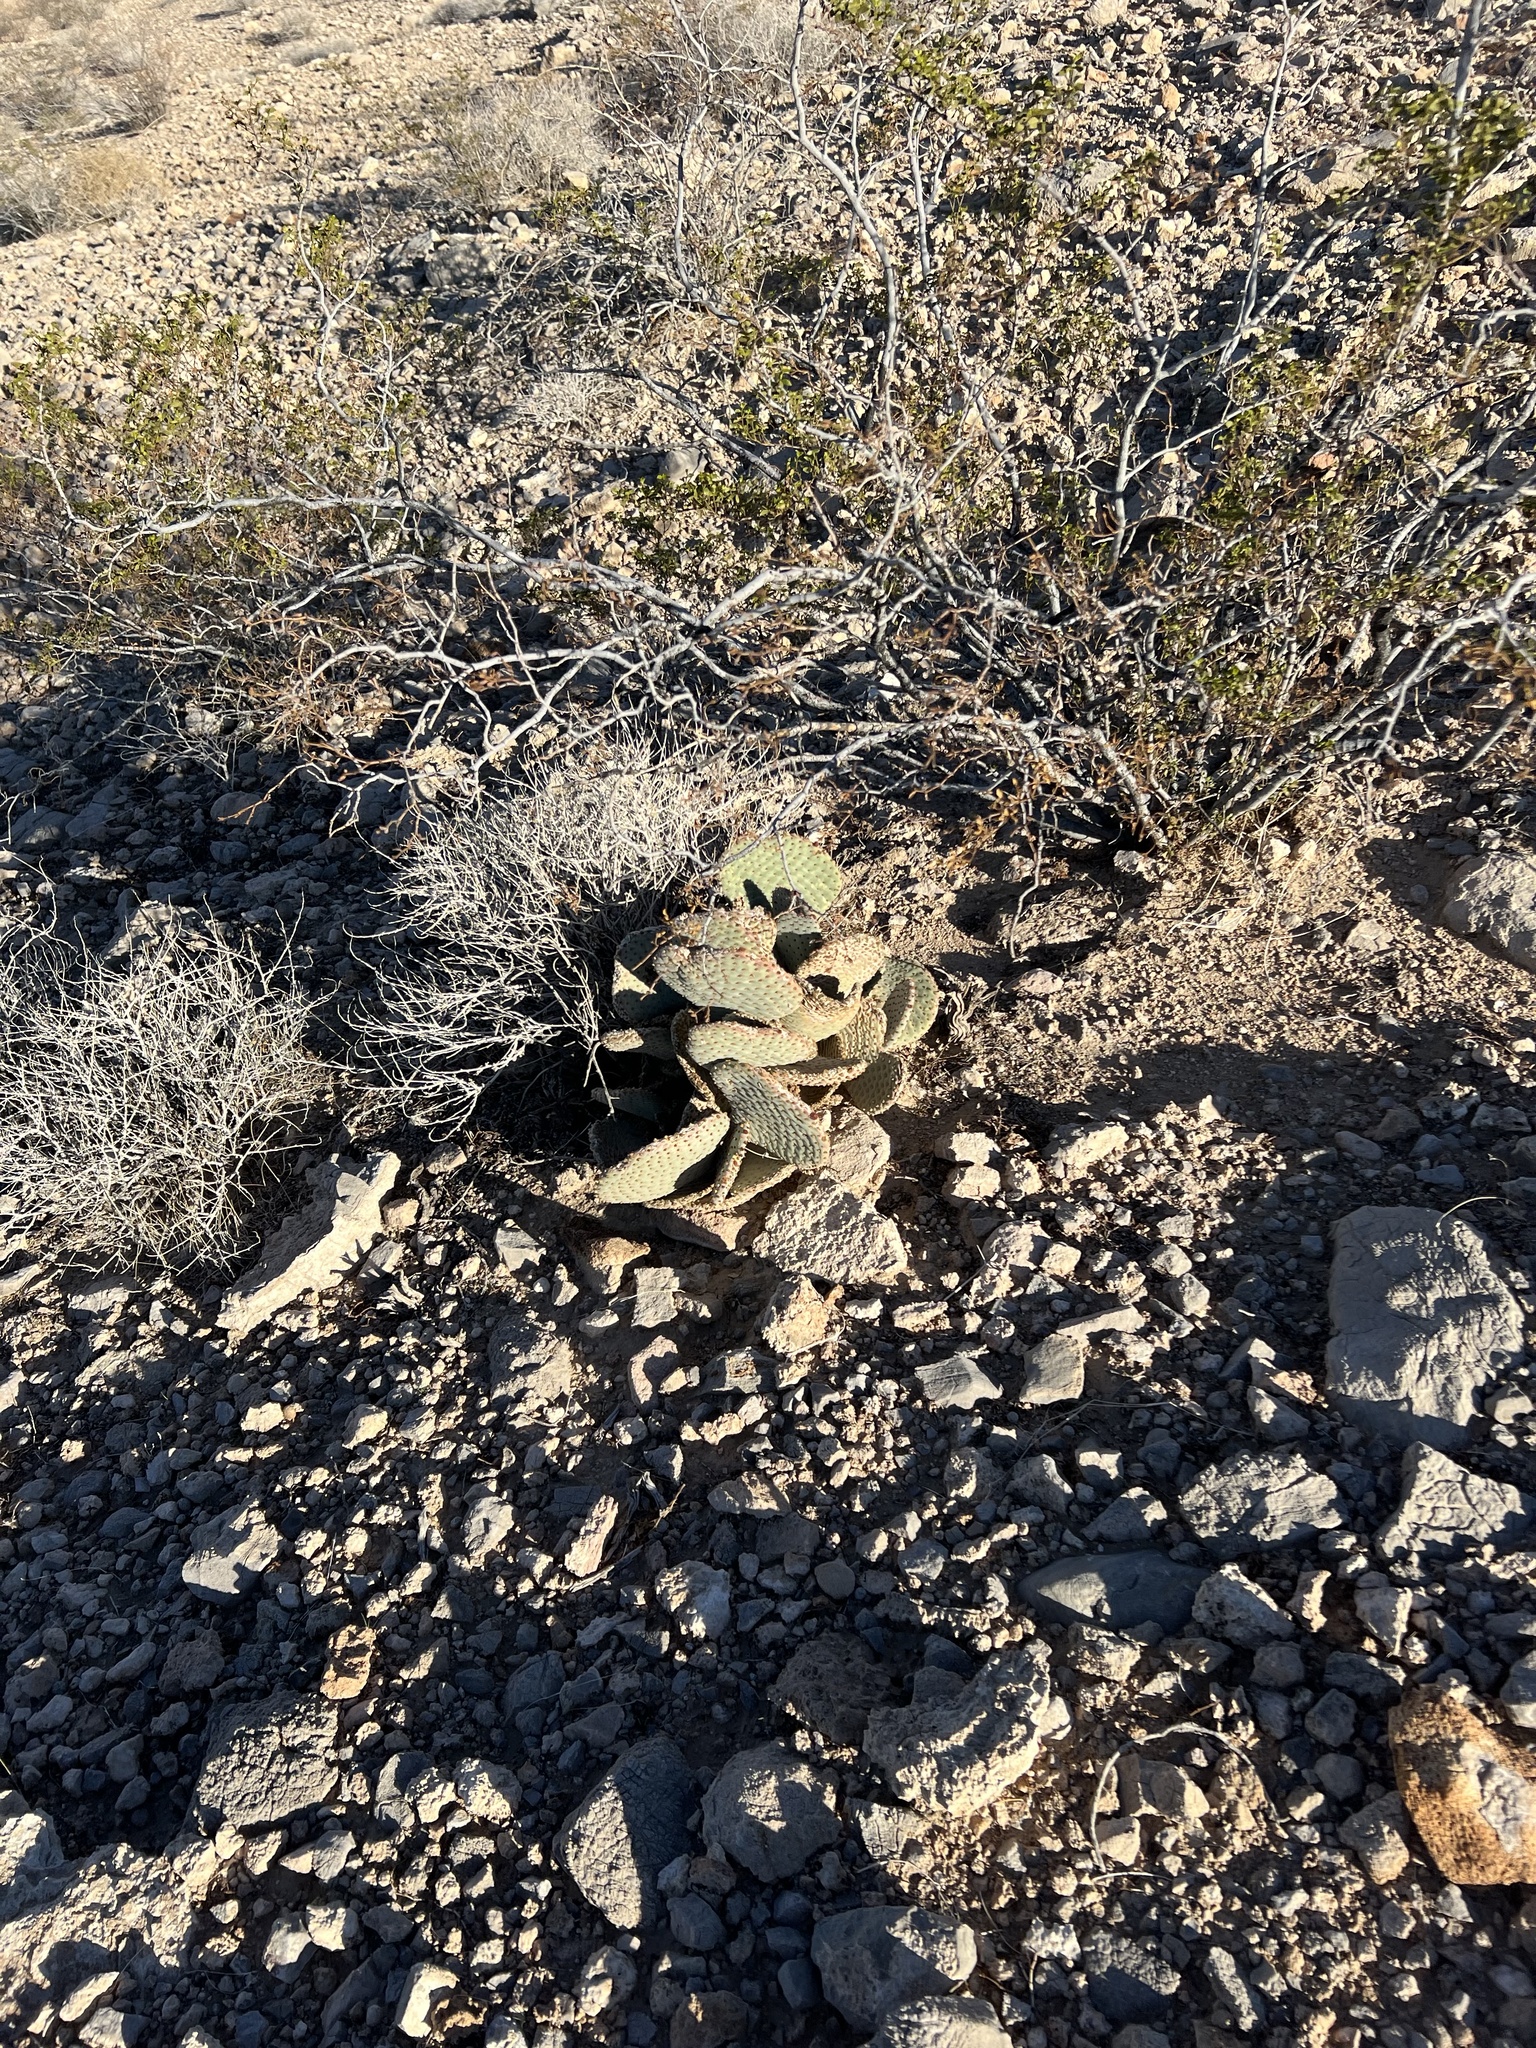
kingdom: Plantae
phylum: Tracheophyta
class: Magnoliopsida
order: Caryophyllales
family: Cactaceae
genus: Opuntia
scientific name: Opuntia basilaris
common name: Beavertail prickly-pear
